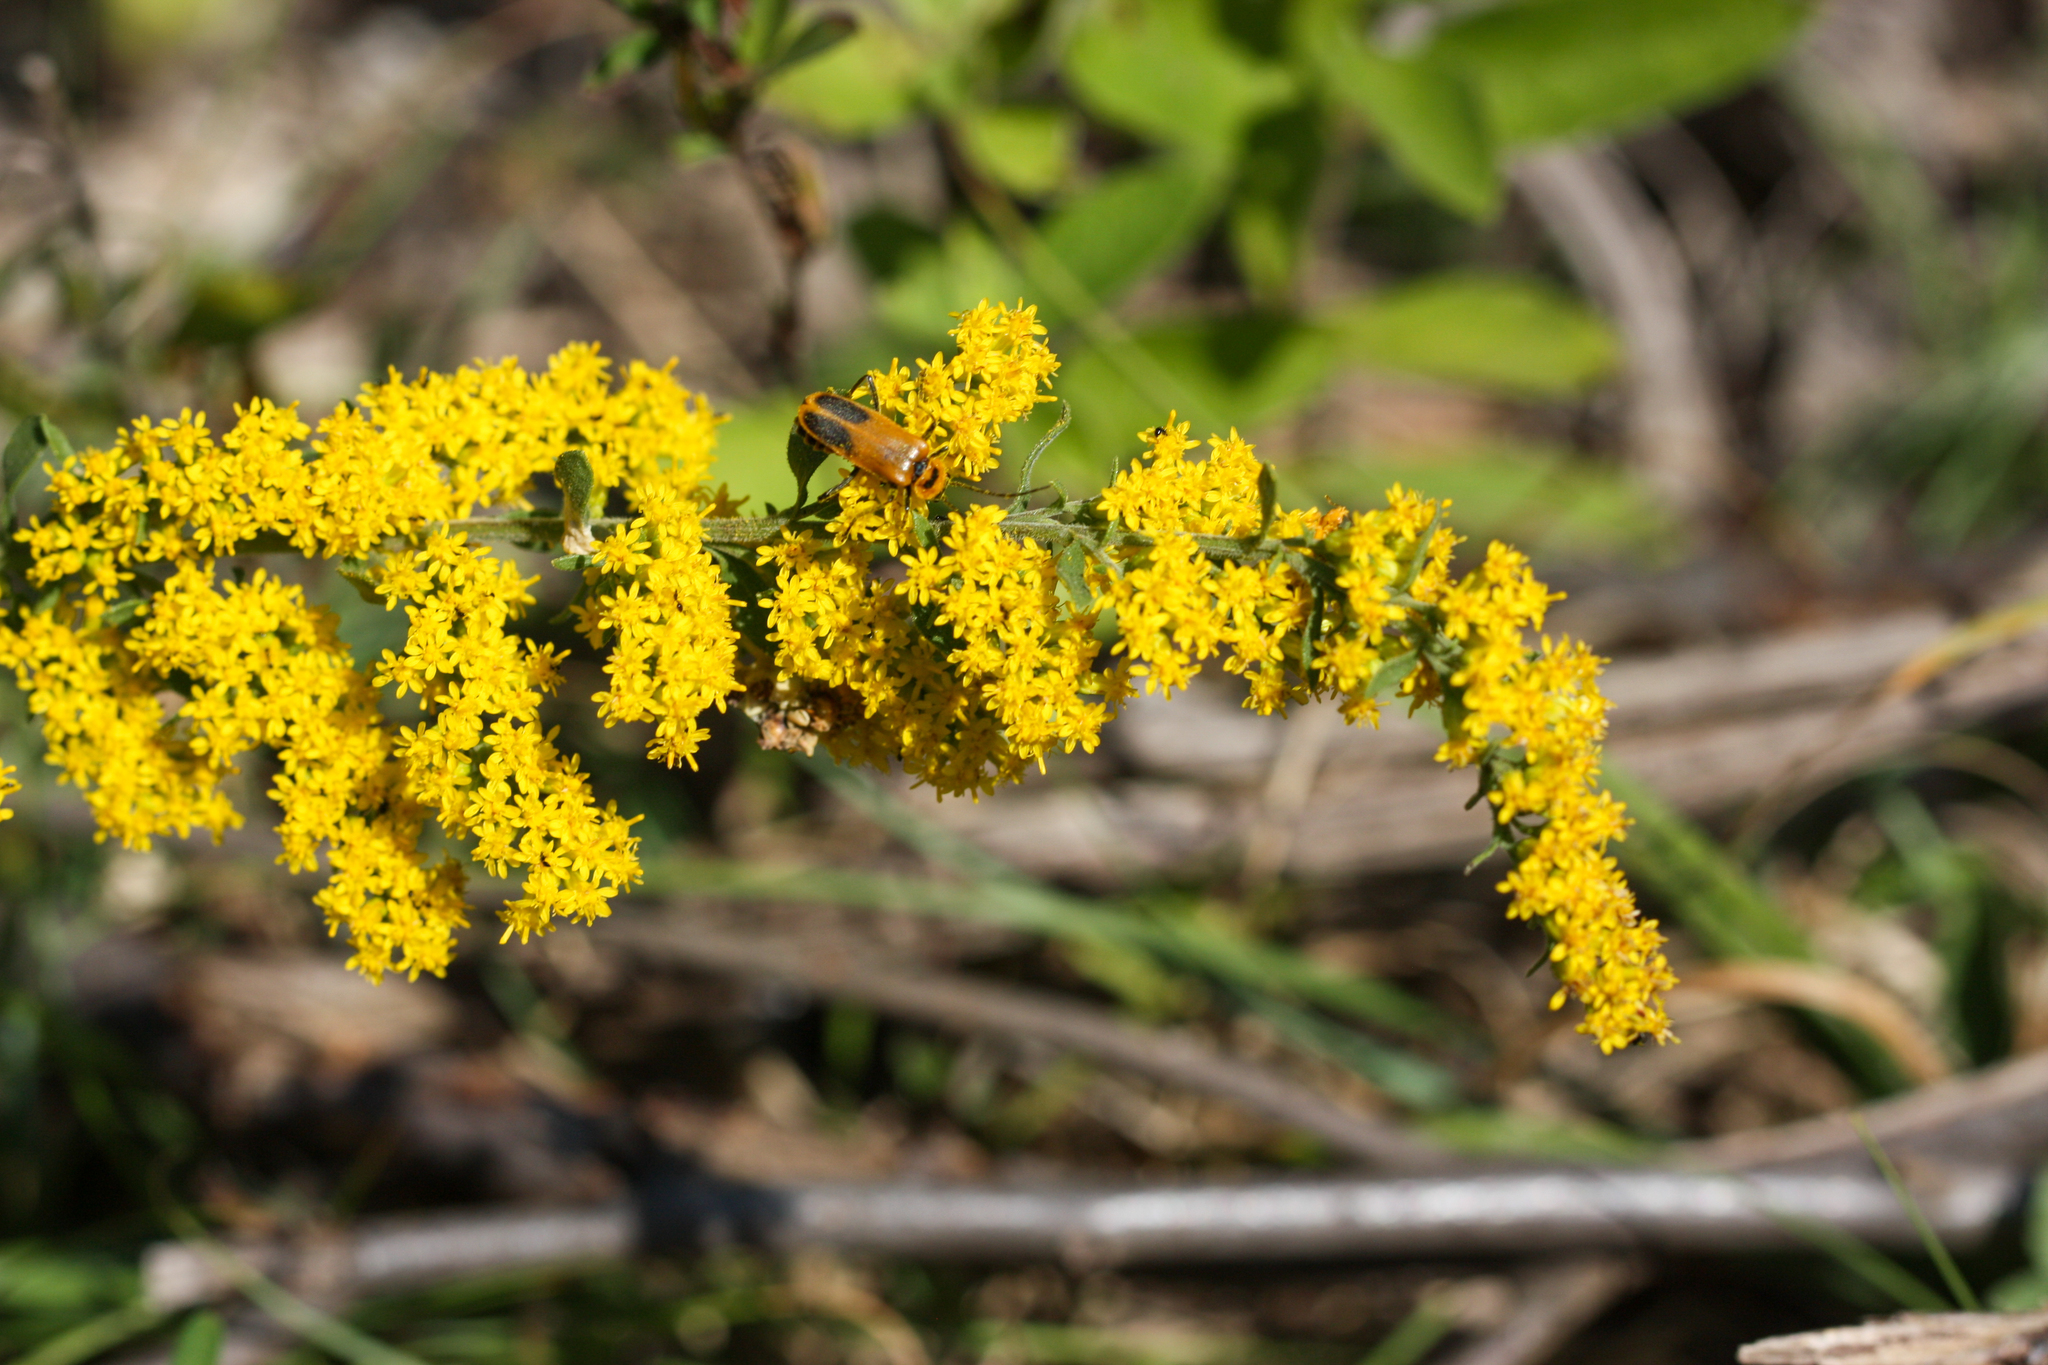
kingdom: Animalia
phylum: Arthropoda
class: Insecta
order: Coleoptera
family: Cantharidae
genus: Chauliognathus
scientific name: Chauliognathus pensylvanicus
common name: Goldenrod soldier beetle
